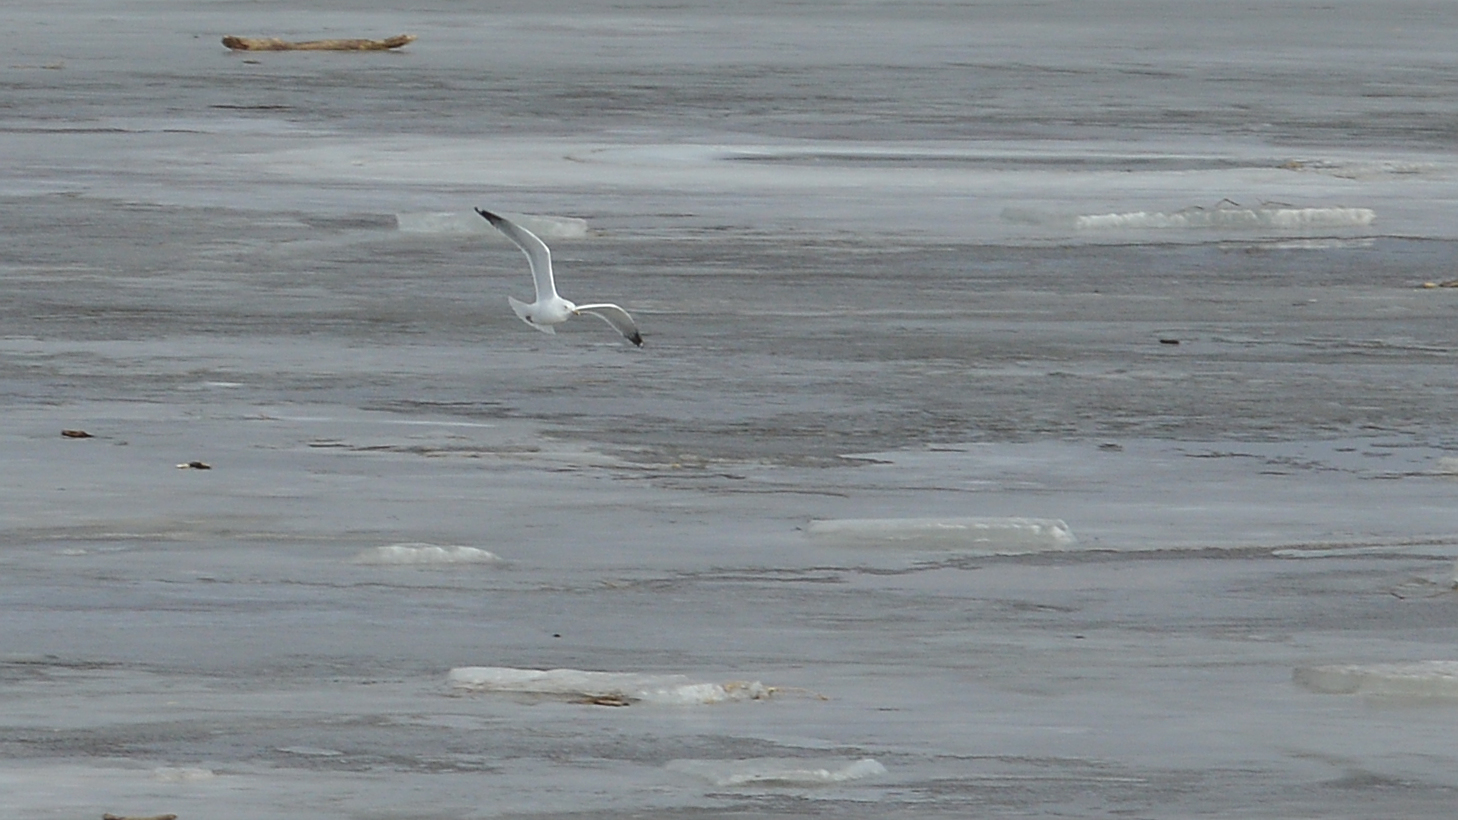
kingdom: Animalia
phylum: Chordata
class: Aves
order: Charadriiformes
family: Laridae
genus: Larus
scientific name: Larus argentatus
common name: Herring gull
